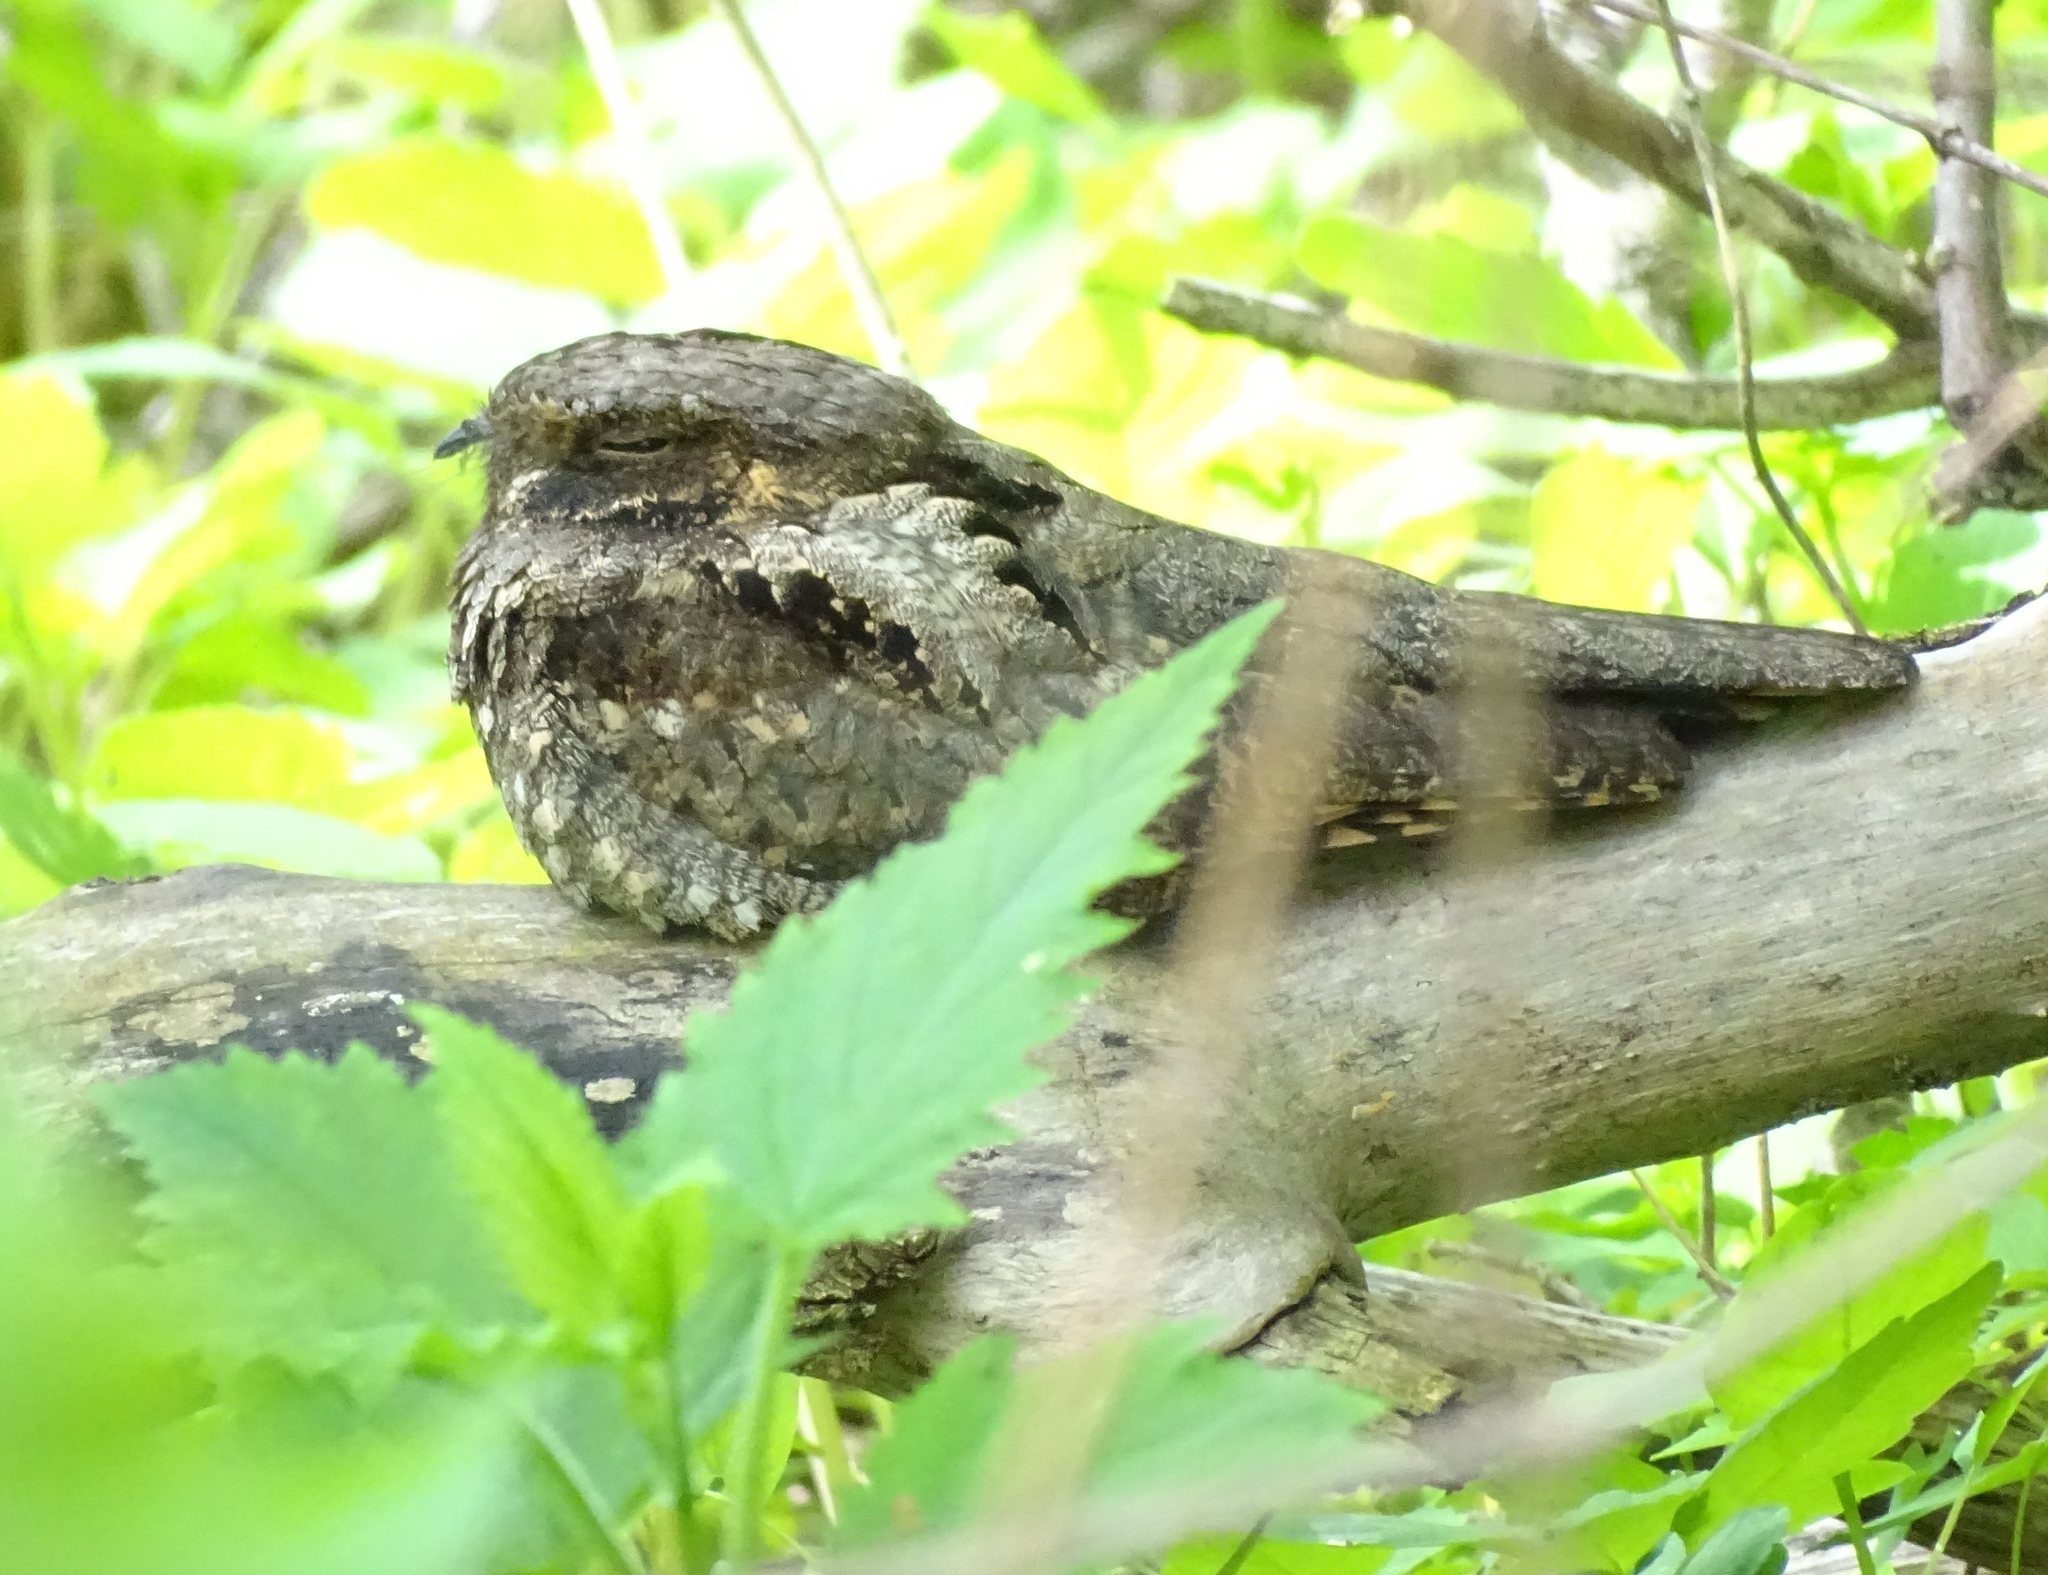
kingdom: Animalia
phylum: Chordata
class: Aves
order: Caprimulgiformes
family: Caprimulgidae
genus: Antrostomus
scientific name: Antrostomus vociferus
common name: Eastern whip-poor-will
